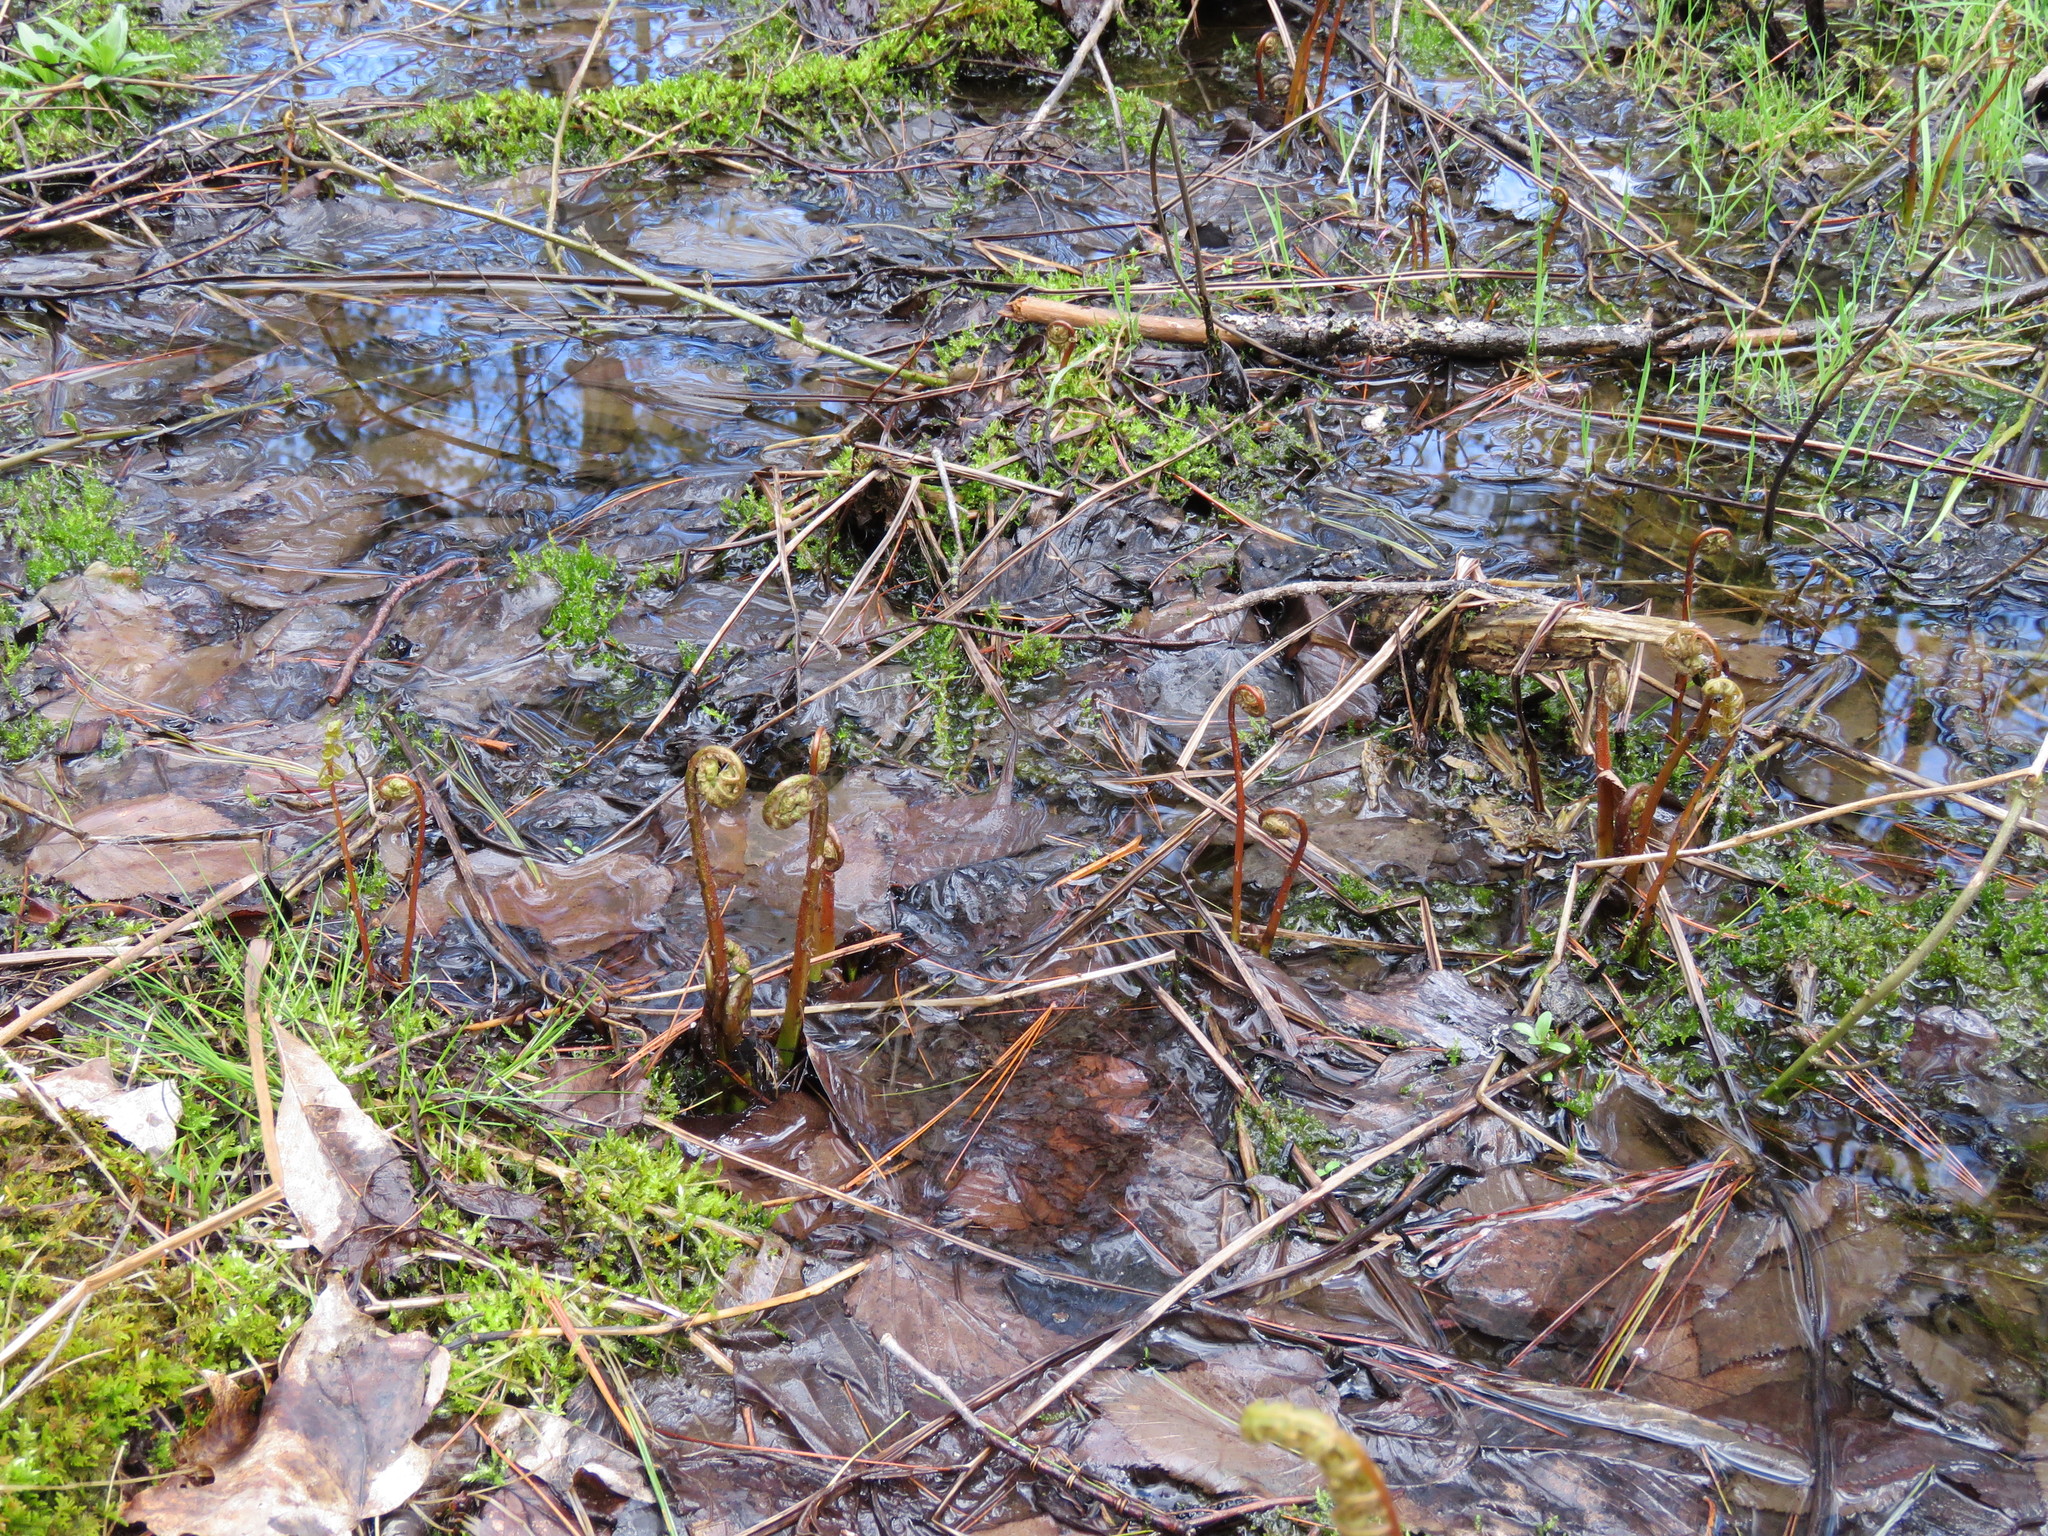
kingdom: Plantae
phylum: Tracheophyta
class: Polypodiopsida
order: Polypodiales
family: Onocleaceae
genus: Onoclea
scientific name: Onoclea sensibilis
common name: Sensitive fern
